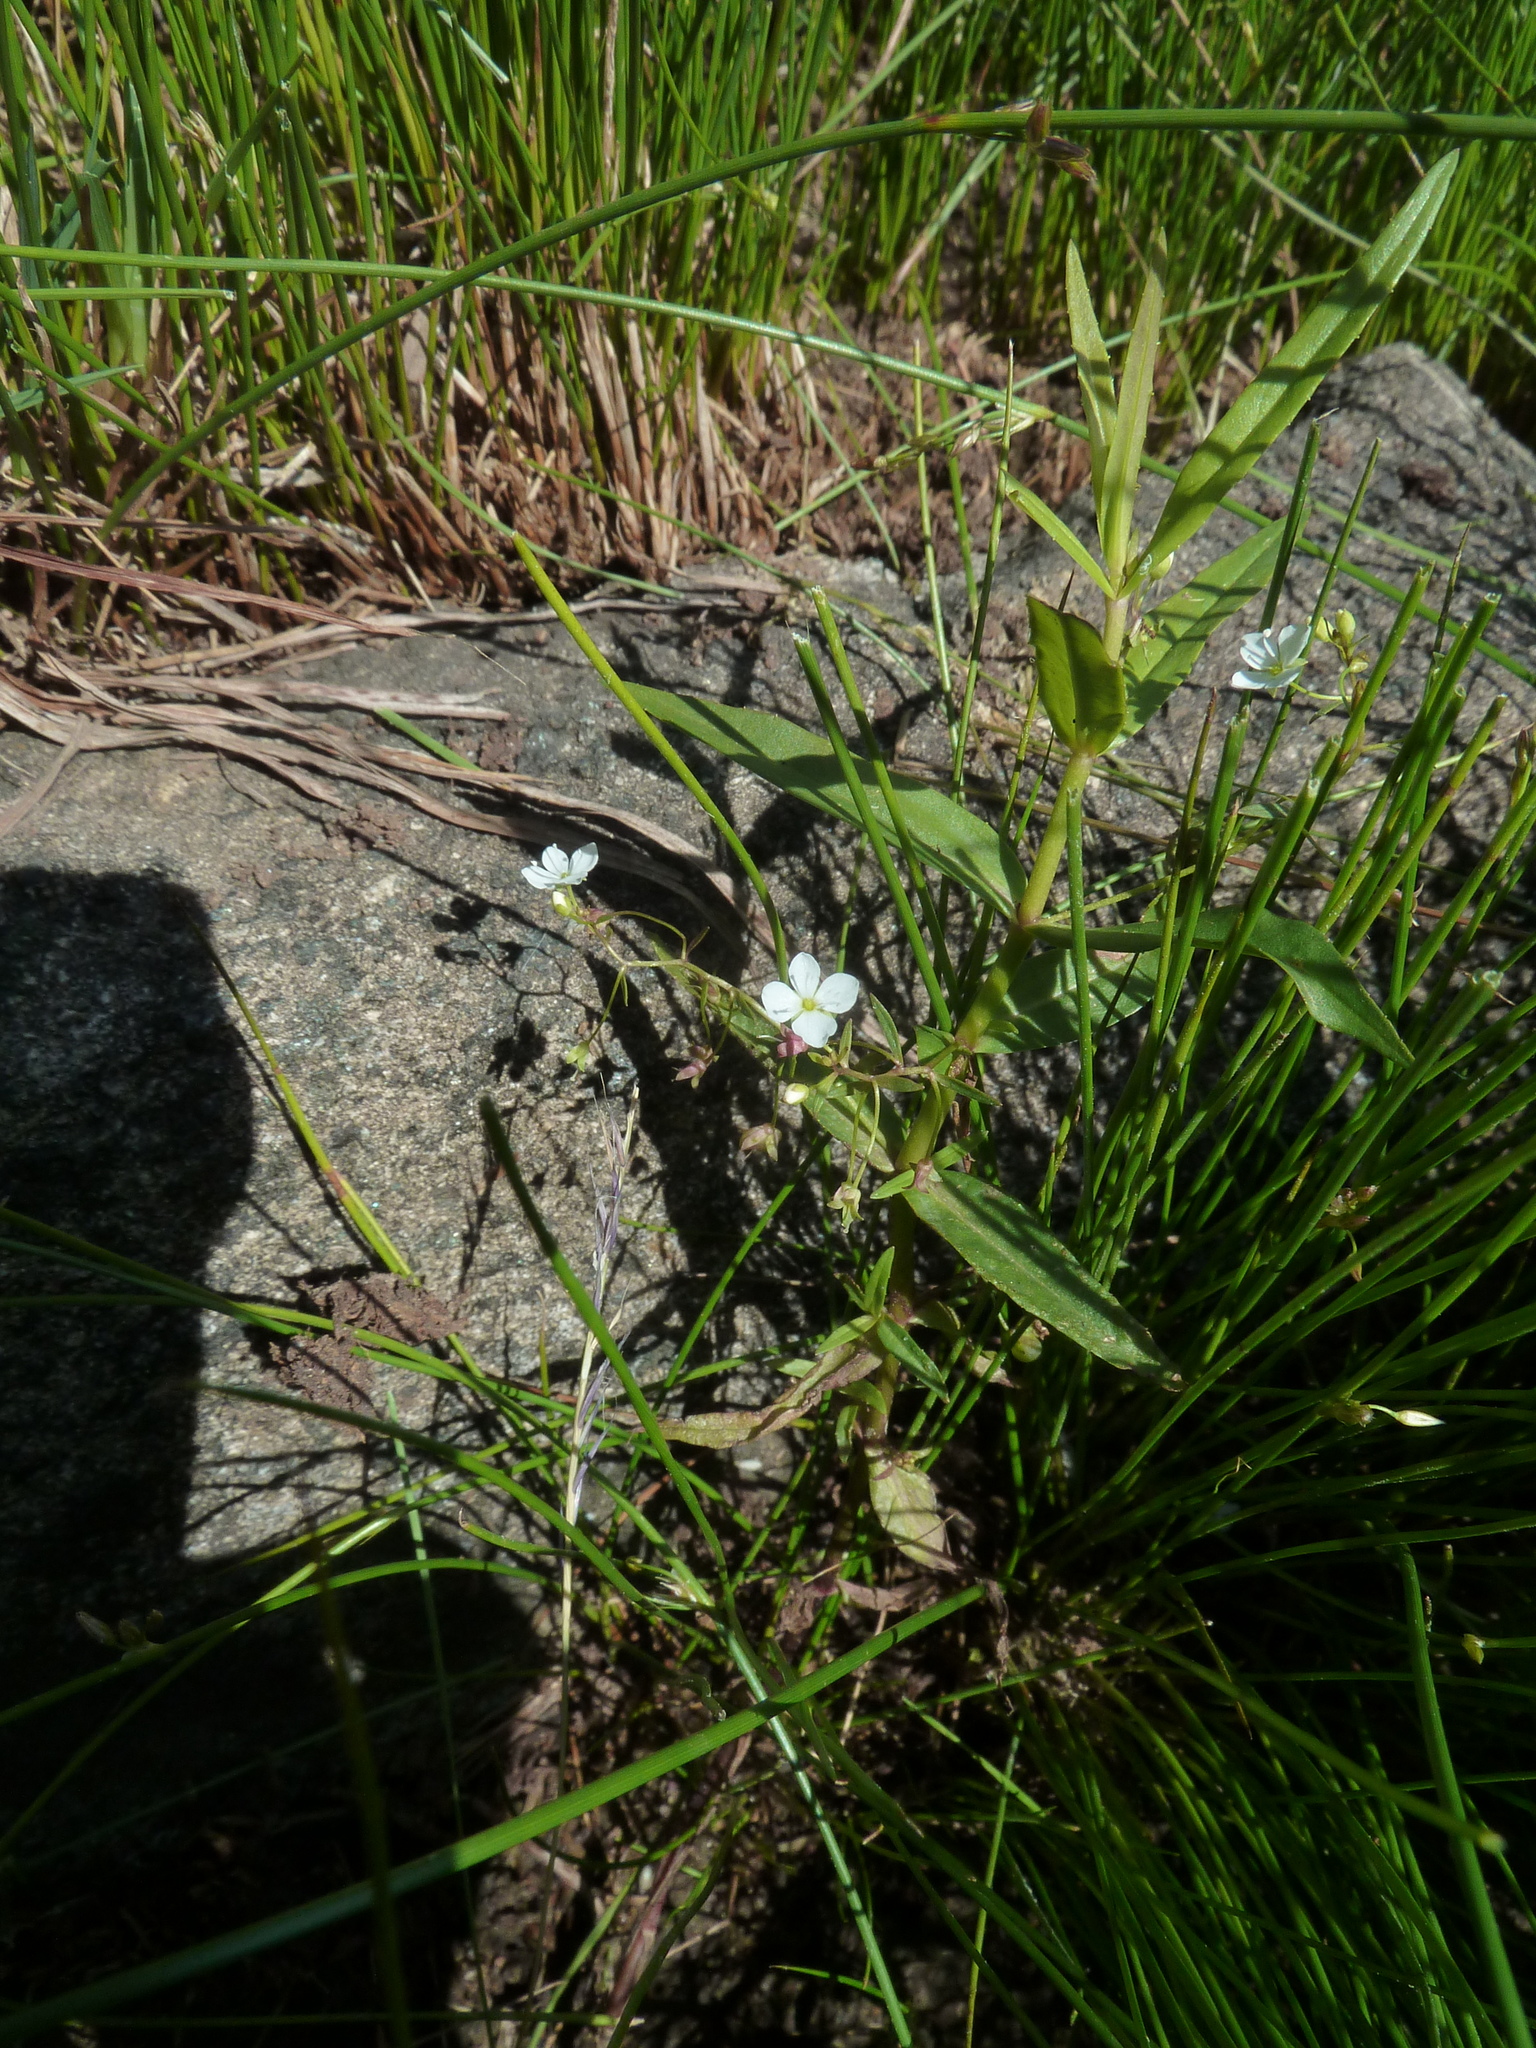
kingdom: Plantae
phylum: Tracheophyta
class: Magnoliopsida
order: Lamiales
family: Plantaginaceae
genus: Veronica
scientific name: Veronica scutellata
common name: Marsh speedwell
